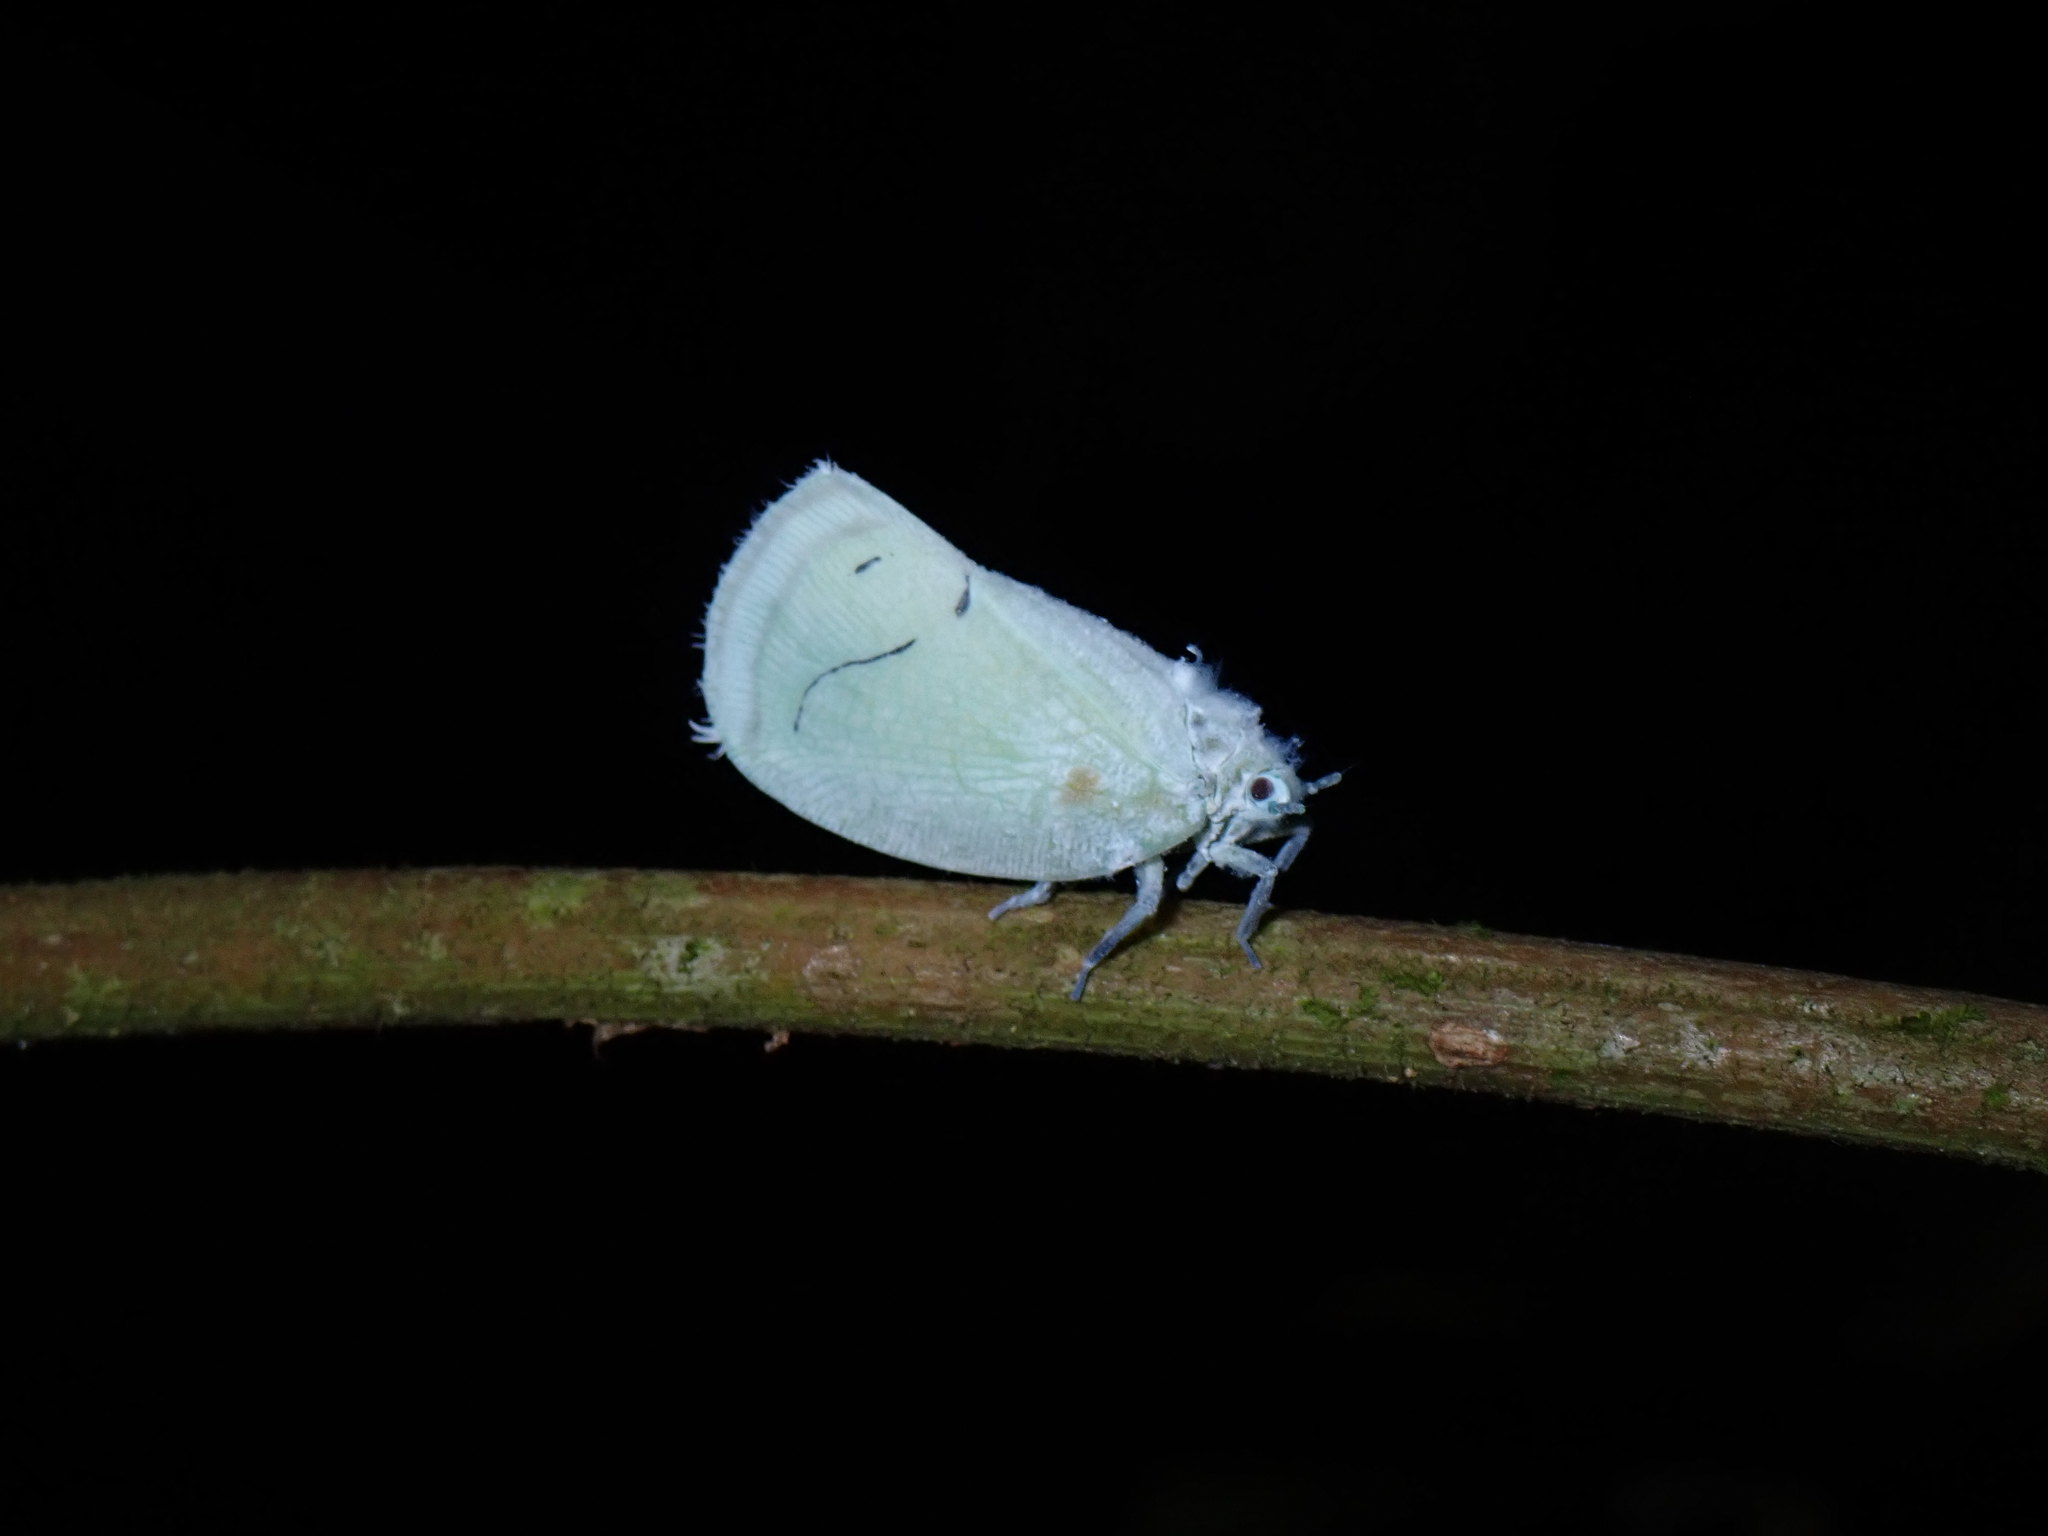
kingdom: Animalia
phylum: Arthropoda
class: Insecta
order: Hemiptera
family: Flatidae
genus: Cerynia
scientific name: Cerynia albata
